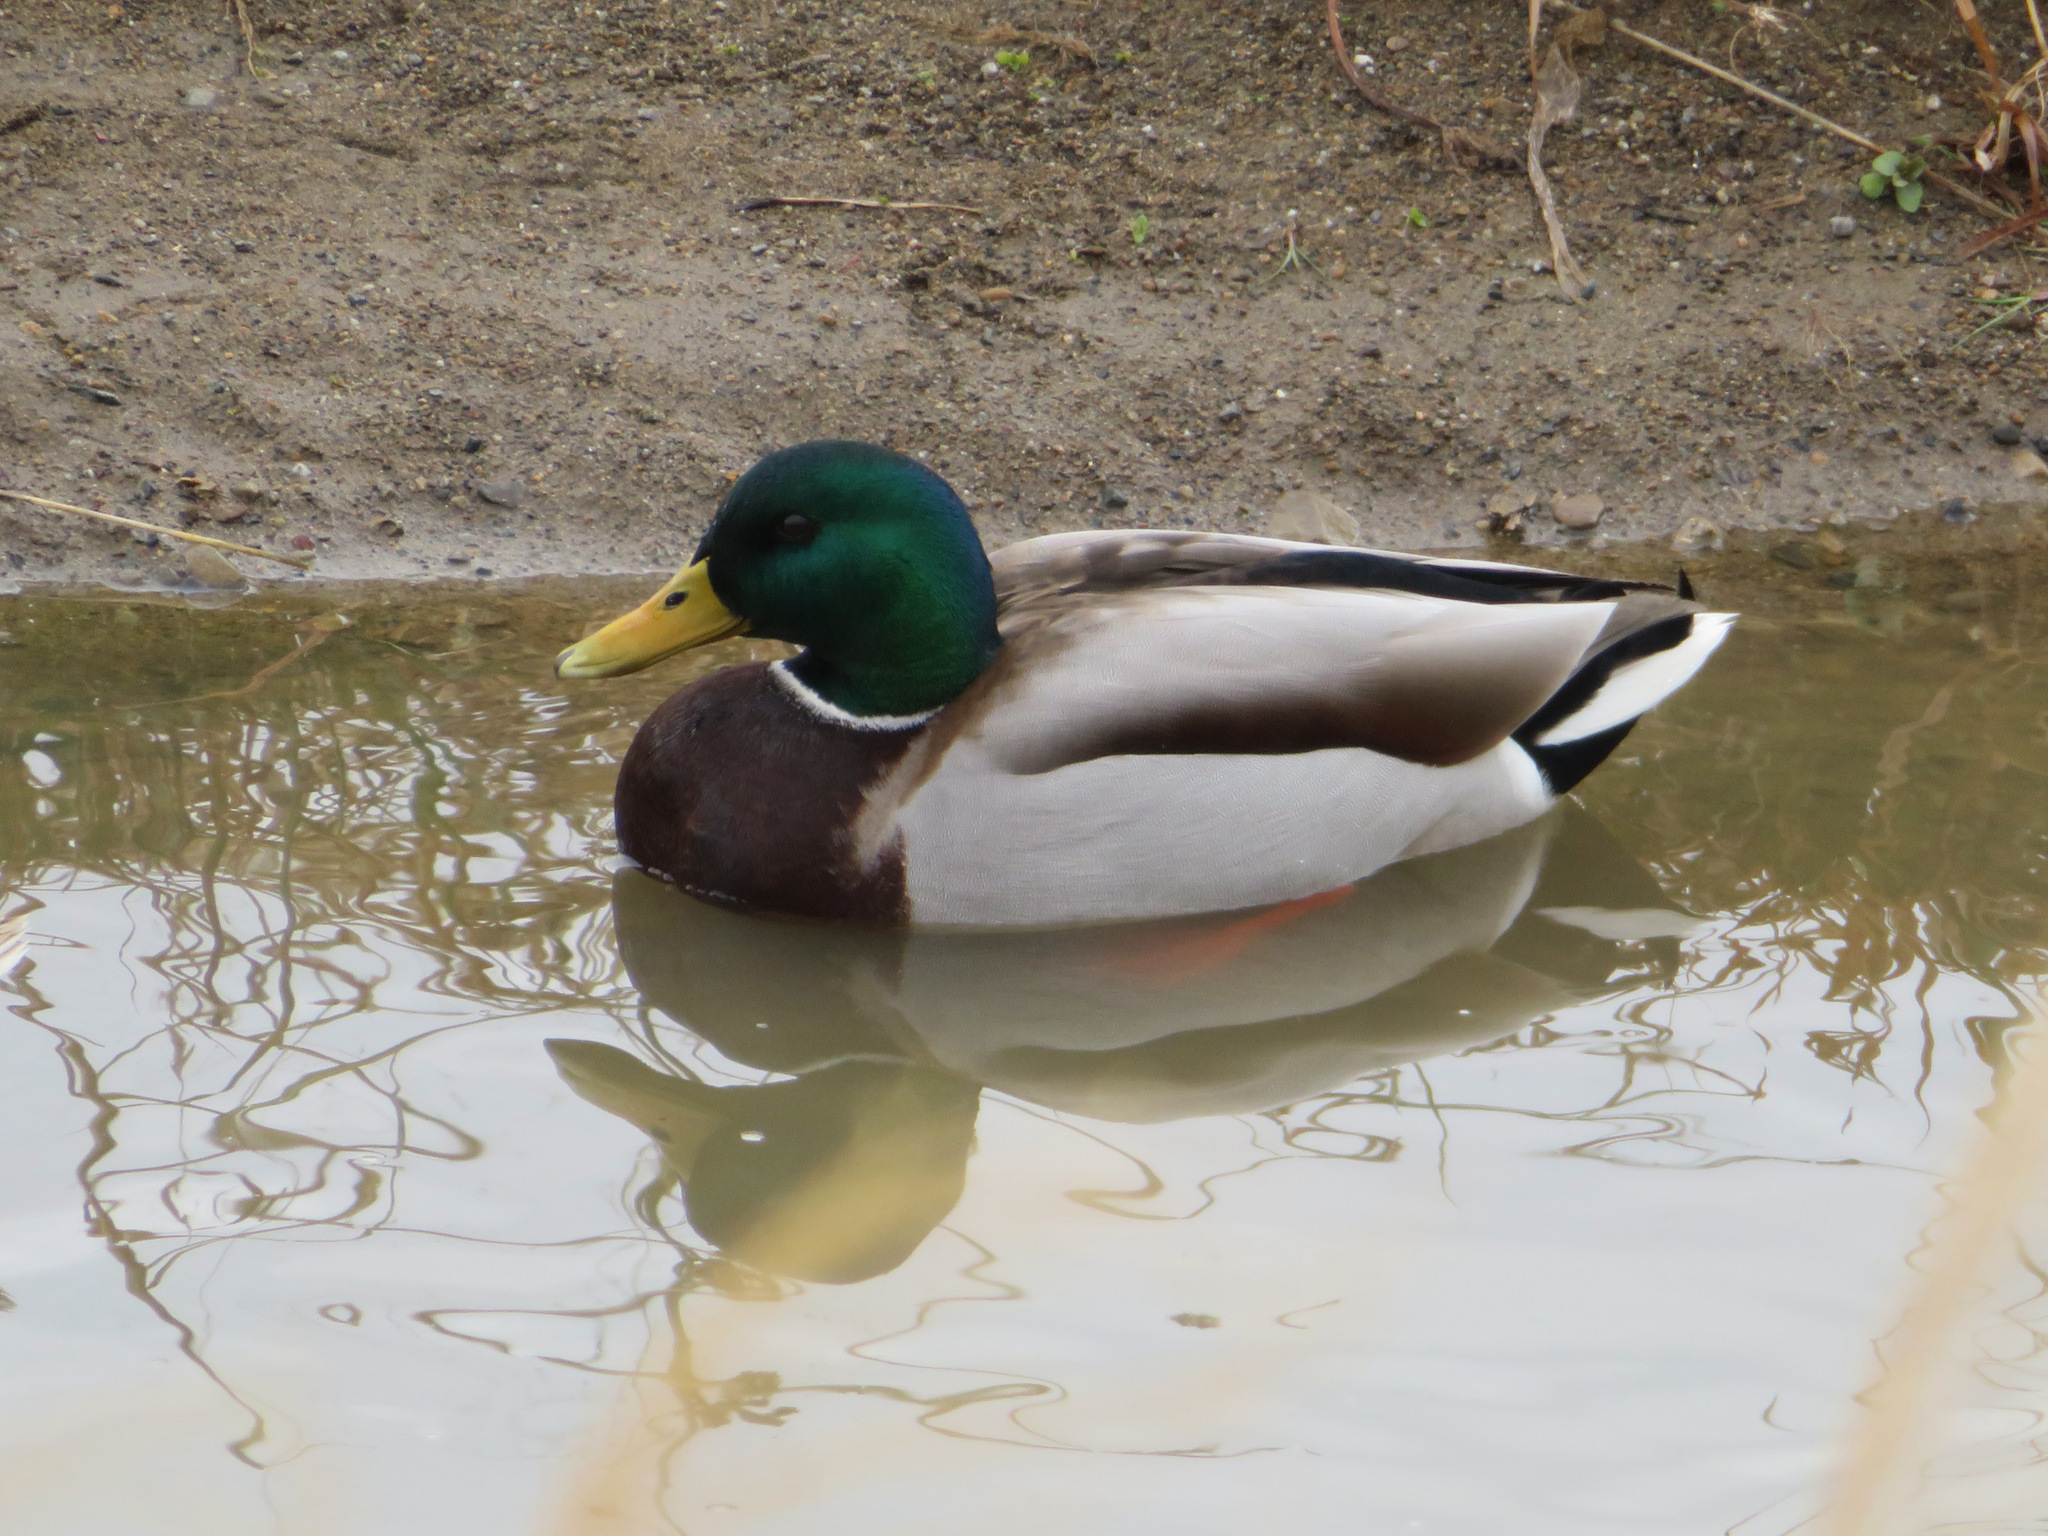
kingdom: Animalia
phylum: Chordata
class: Aves
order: Anseriformes
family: Anatidae
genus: Anas
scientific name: Anas platyrhynchos
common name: Mallard
